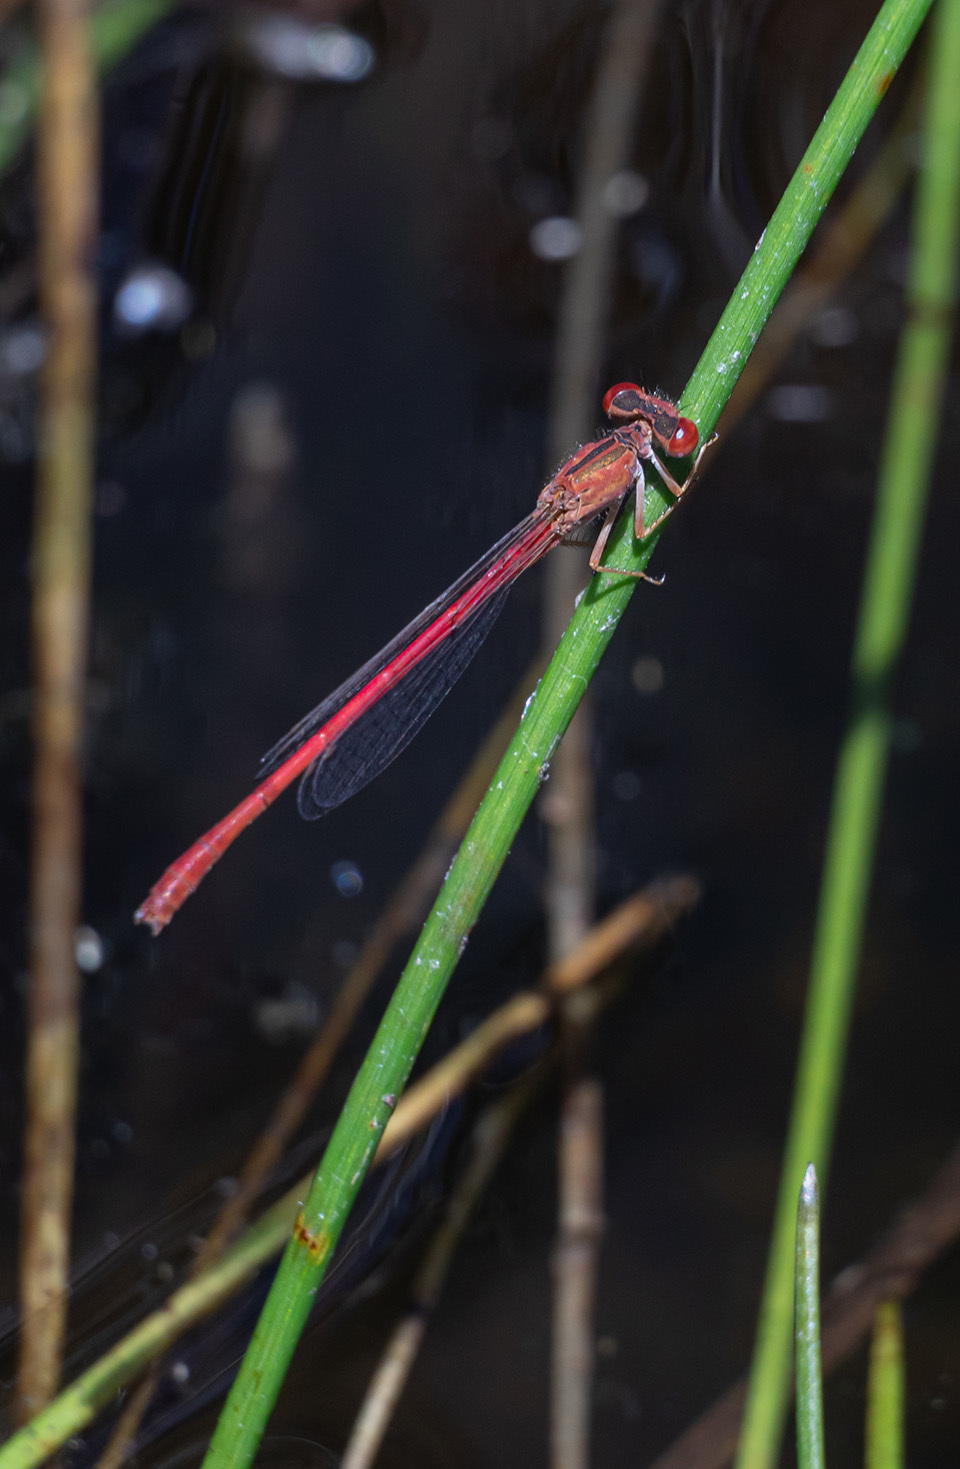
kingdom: Animalia
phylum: Arthropoda
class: Insecta
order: Odonata
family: Coenagrionidae
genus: Telebasis
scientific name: Telebasis salva
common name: Desert firetail
